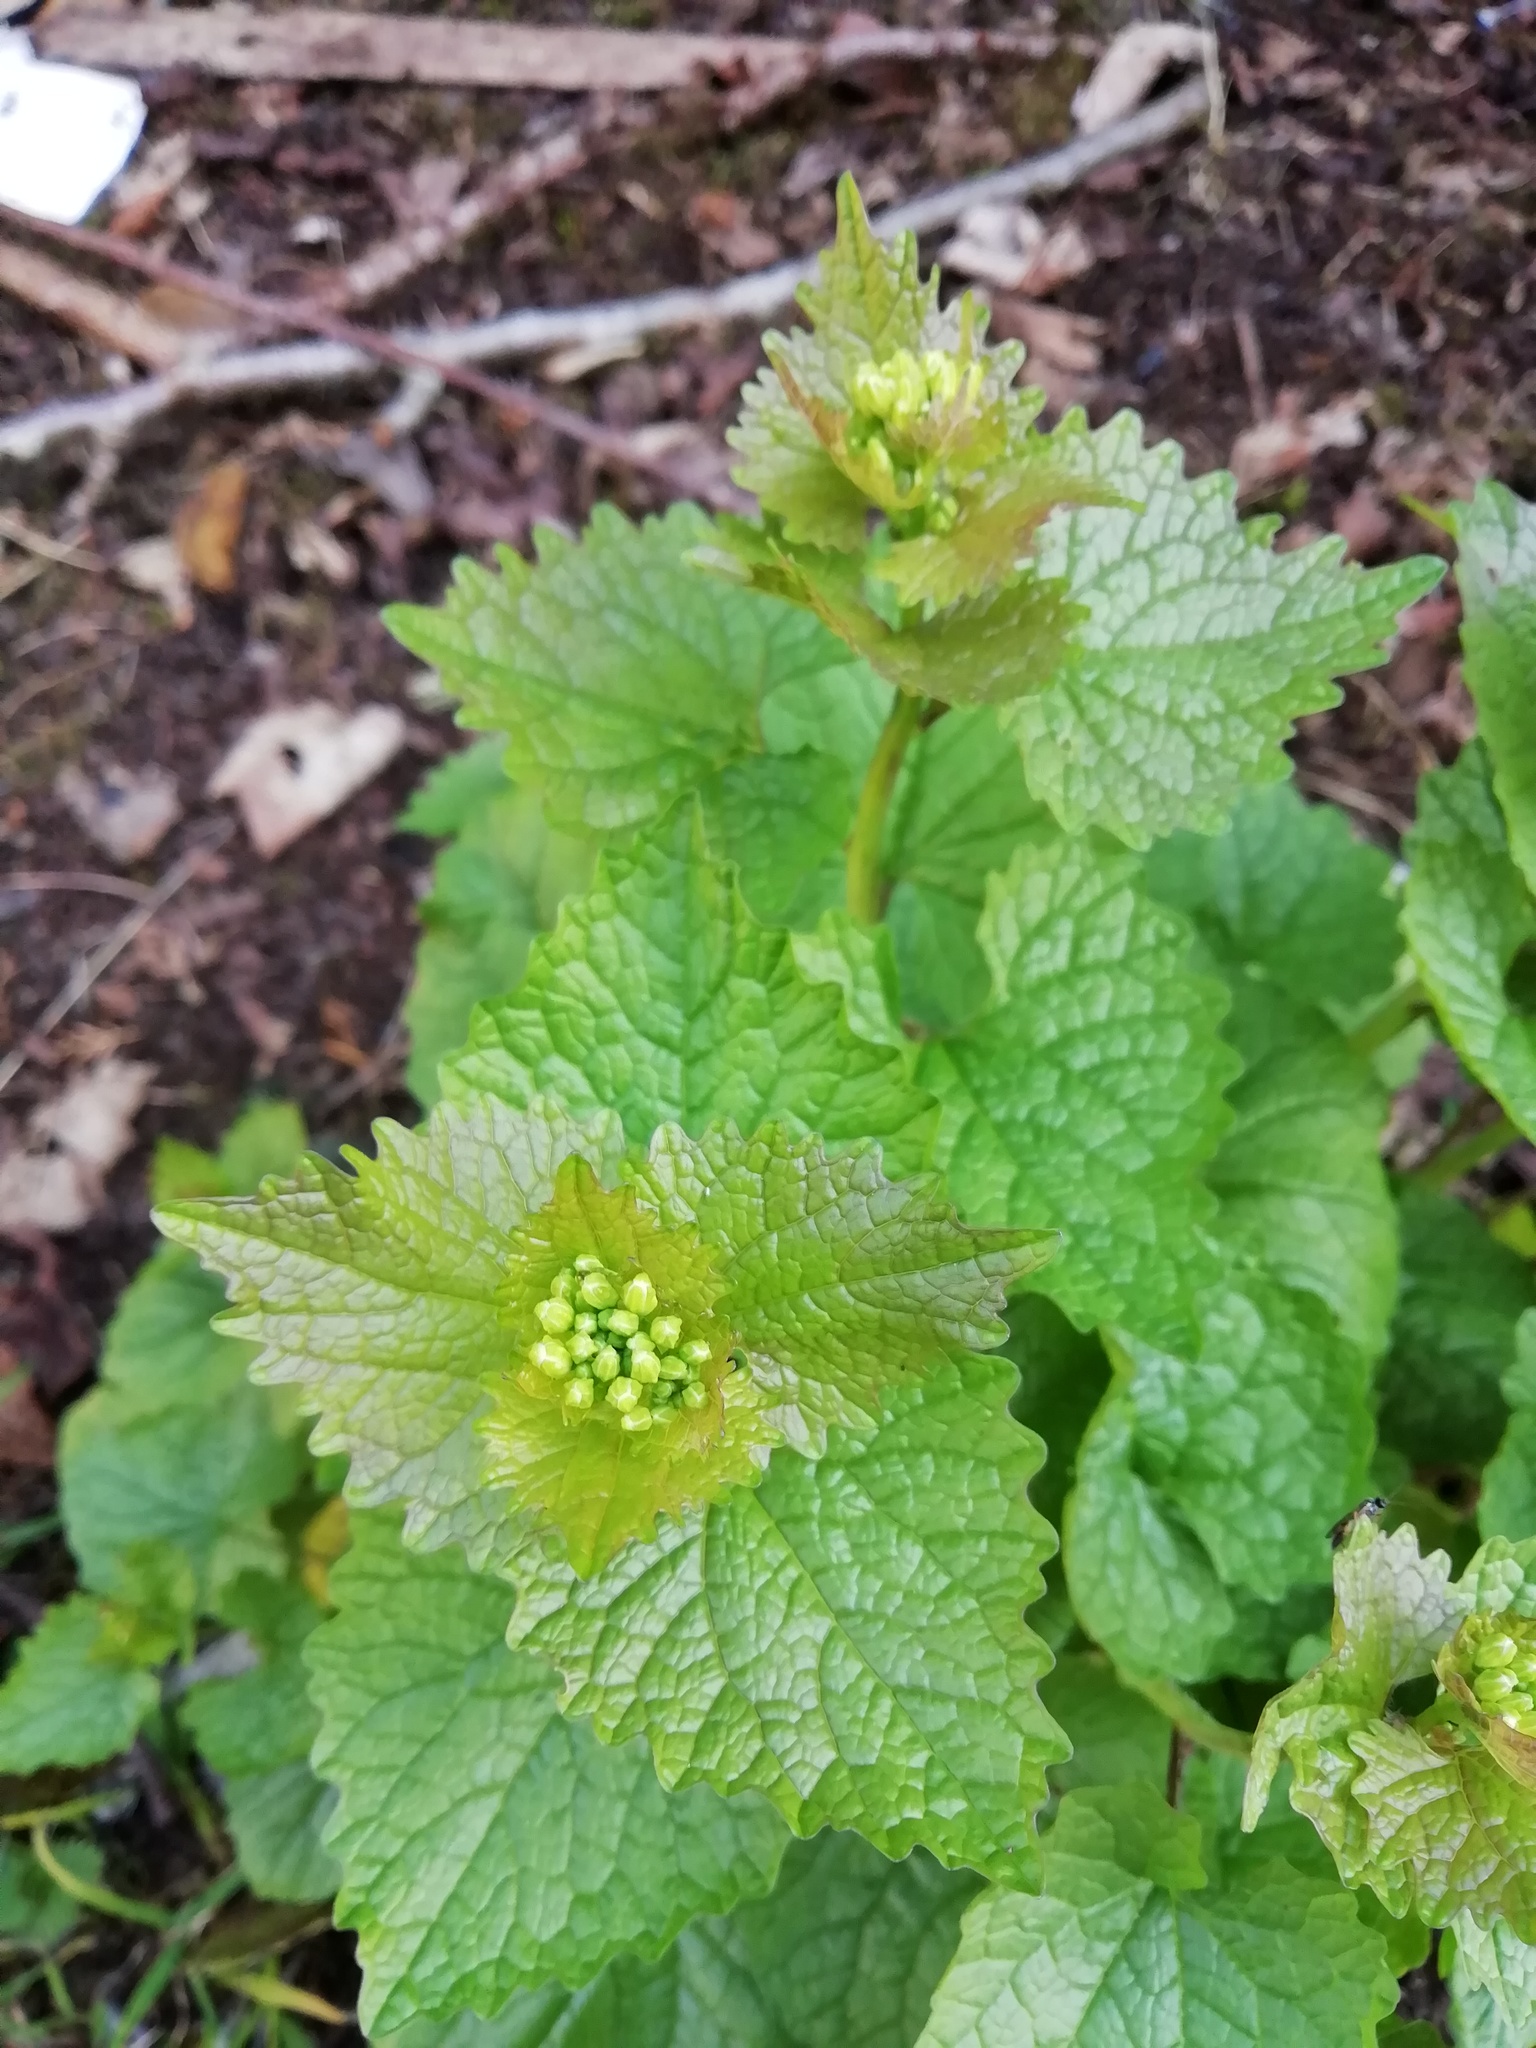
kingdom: Plantae
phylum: Tracheophyta
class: Magnoliopsida
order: Brassicales
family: Brassicaceae
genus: Alliaria
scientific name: Alliaria petiolata
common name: Garlic mustard
